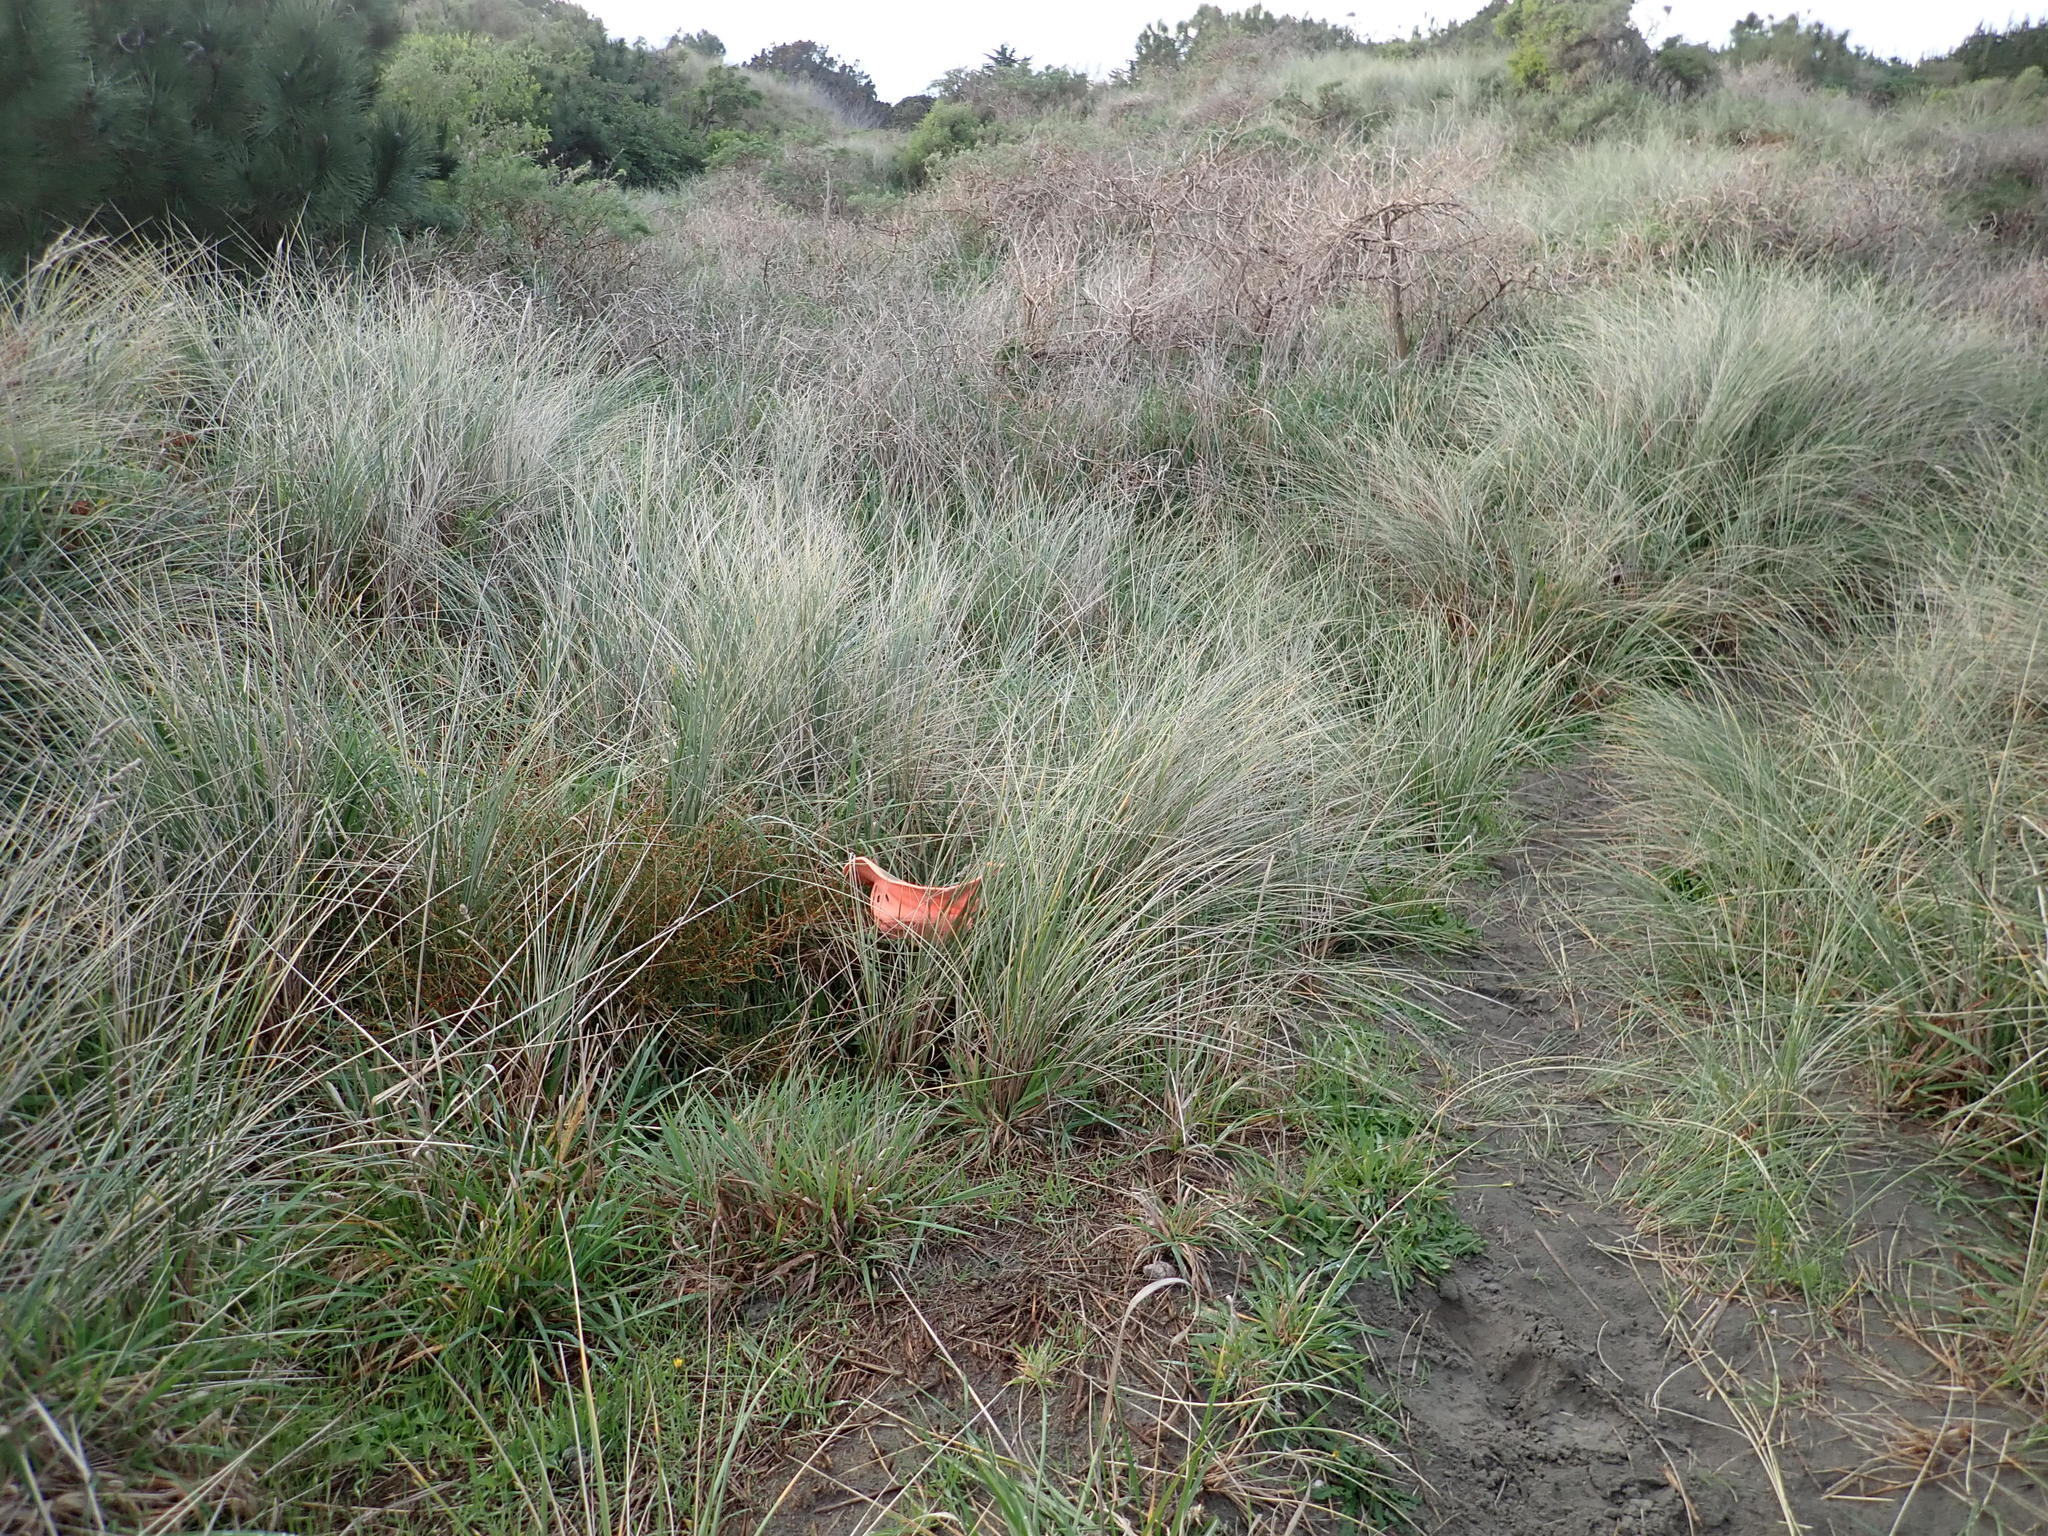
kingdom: Plantae
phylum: Tracheophyta
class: Magnoliopsida
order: Gentianales
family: Rubiaceae
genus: Coprosma
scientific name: Coprosma acerosa
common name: Sand coprosma
